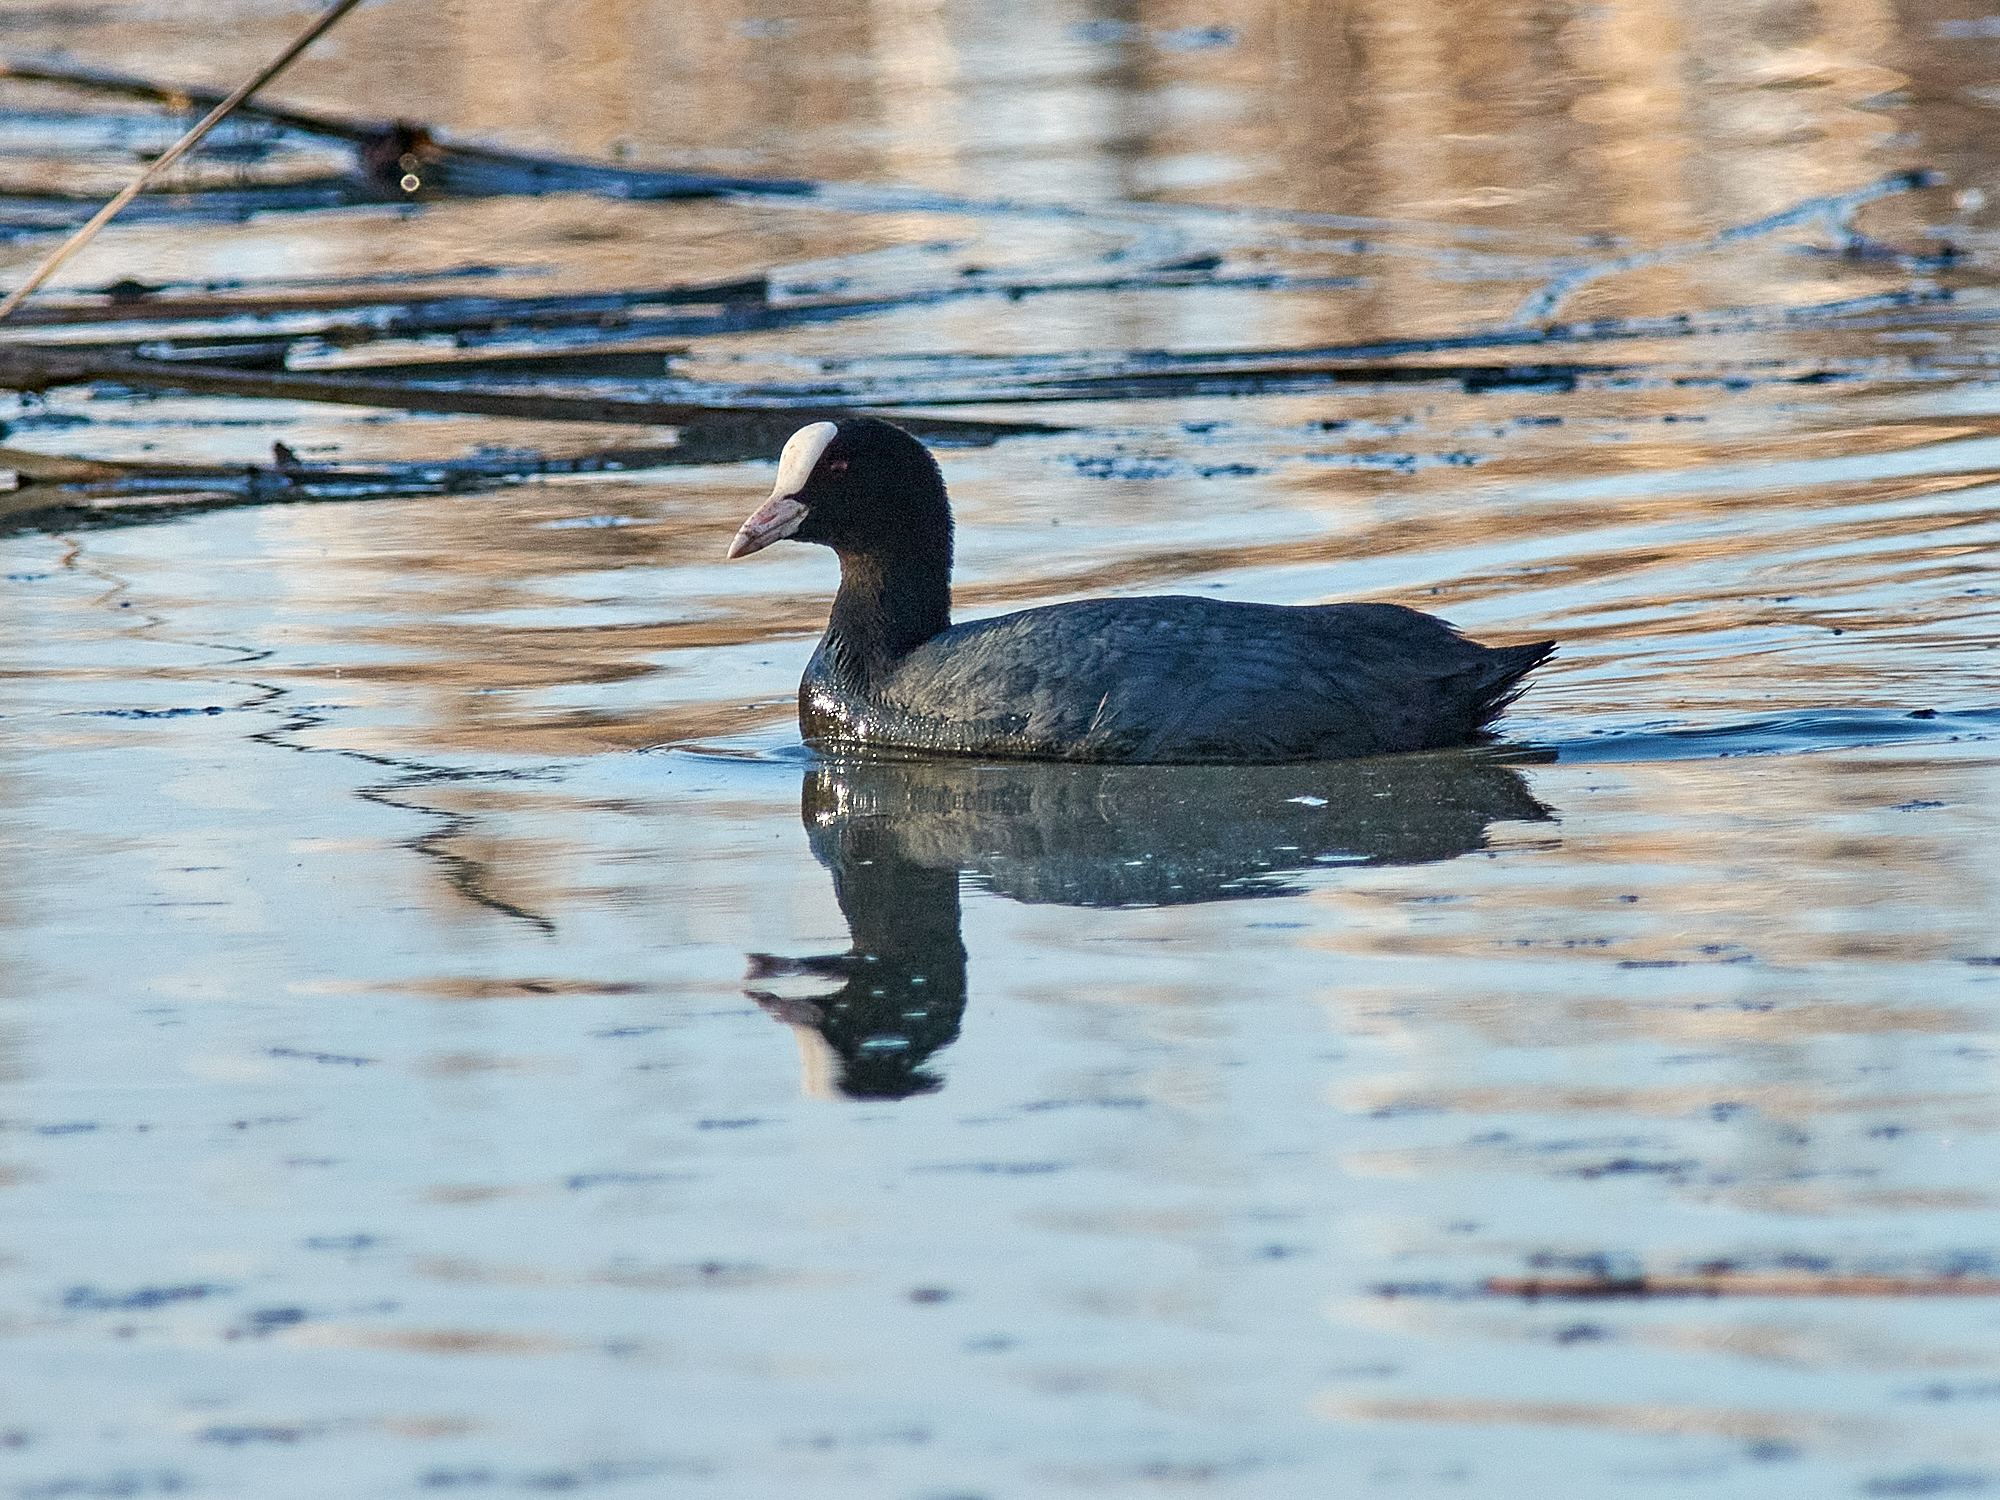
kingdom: Animalia
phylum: Chordata
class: Aves
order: Gruiformes
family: Rallidae
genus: Fulica
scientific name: Fulica atra
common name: Eurasian coot
